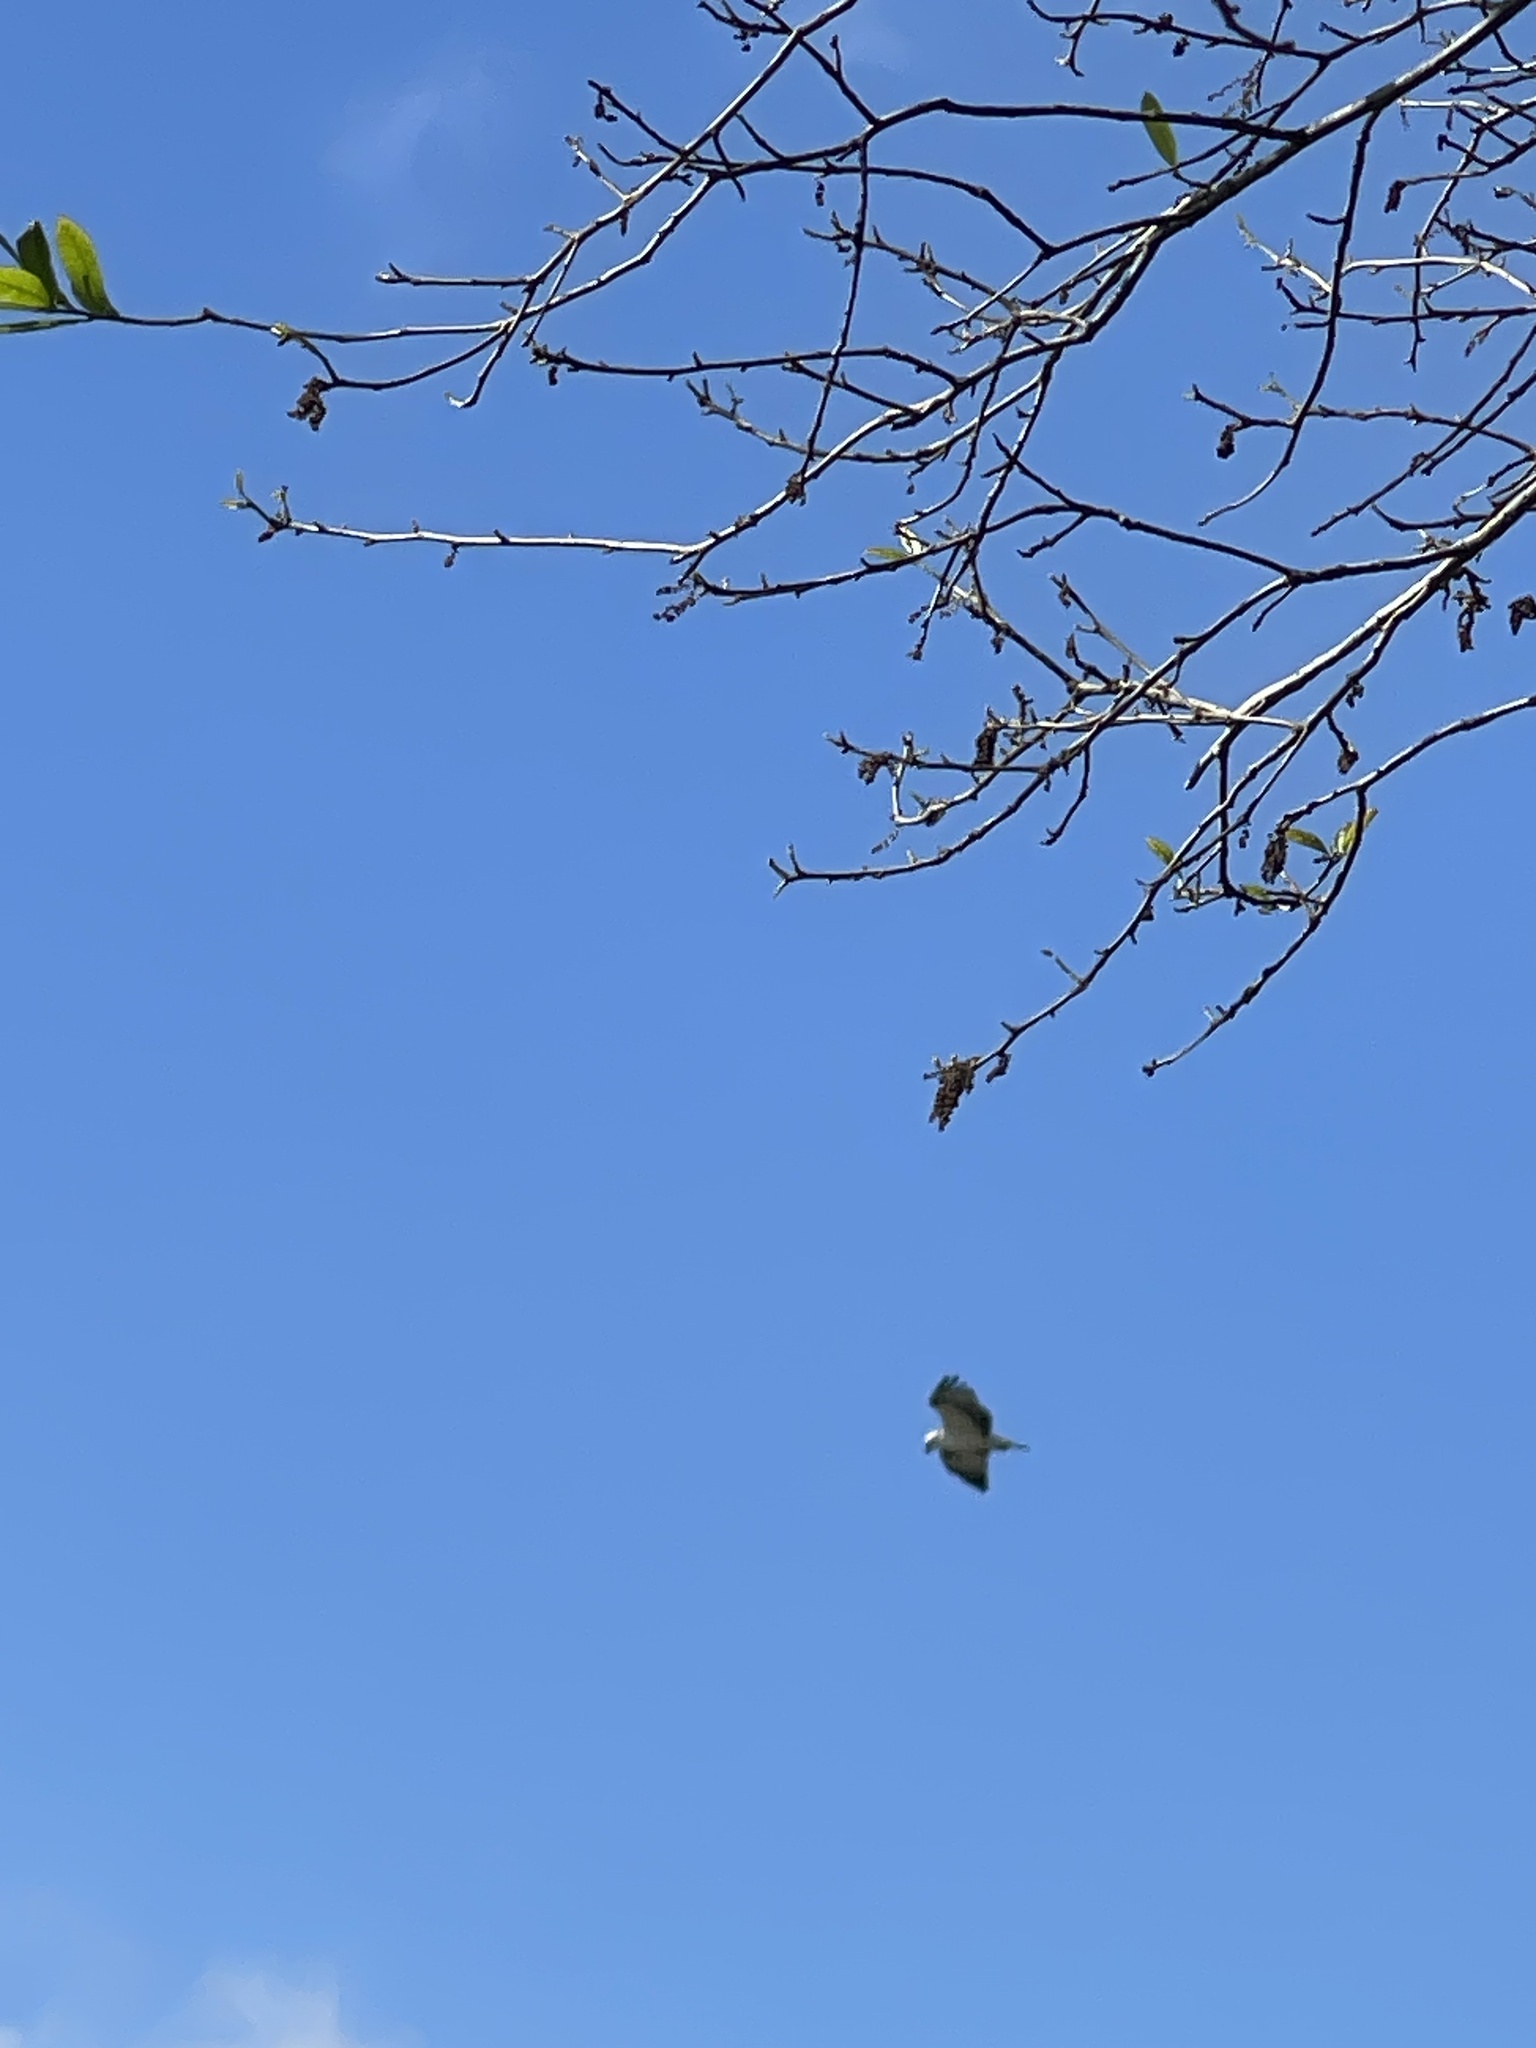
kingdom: Animalia
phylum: Chordata
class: Aves
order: Accipitriformes
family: Pandionidae
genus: Pandion
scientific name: Pandion haliaetus
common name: Osprey
